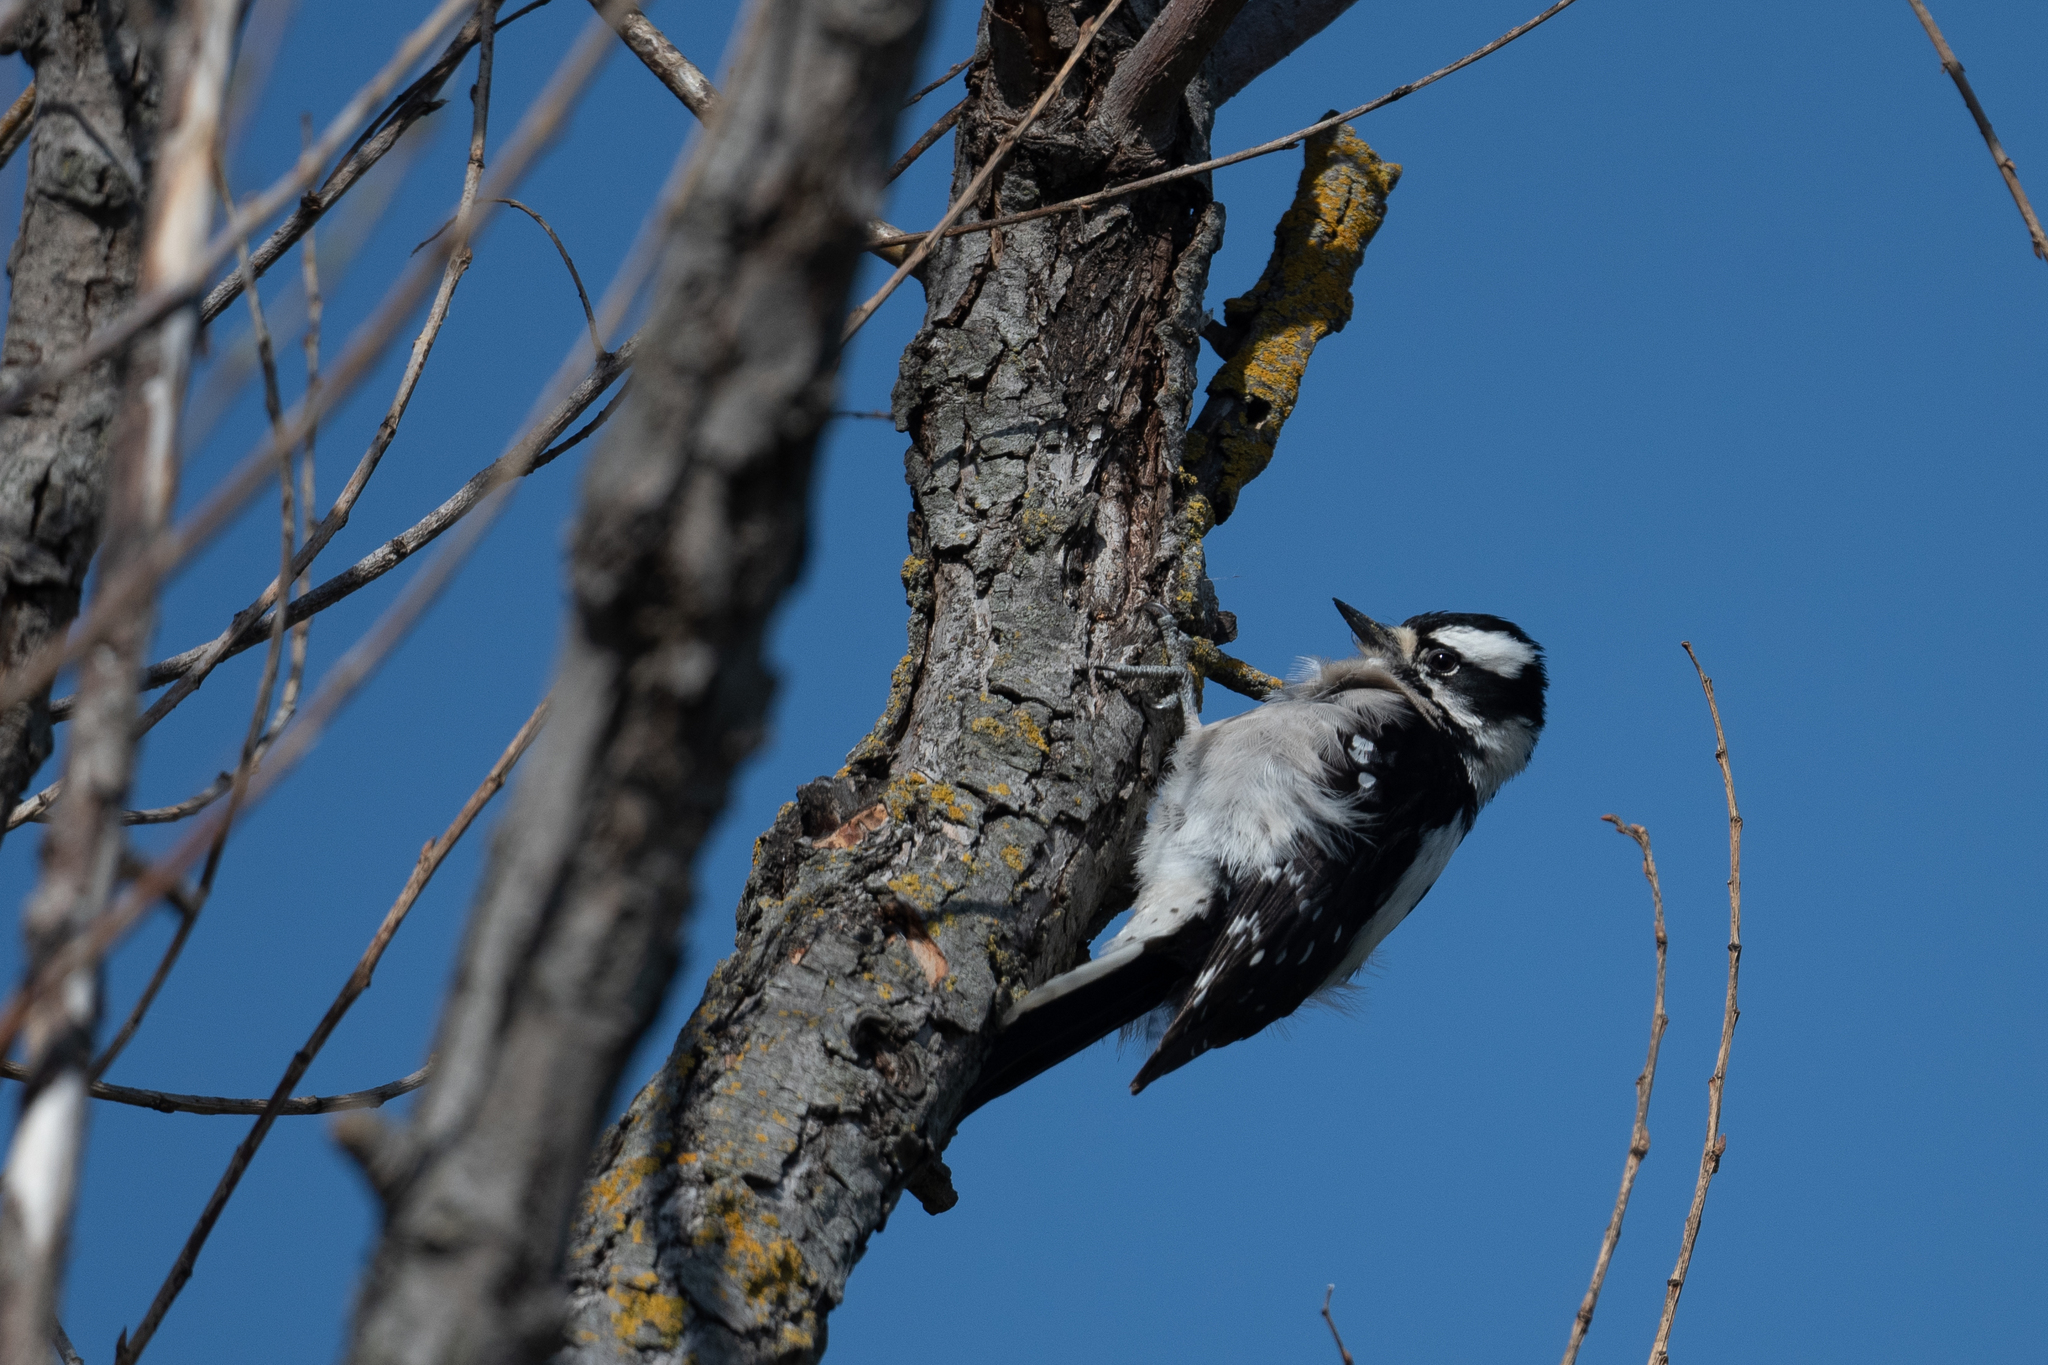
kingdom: Animalia
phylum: Chordata
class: Aves
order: Piciformes
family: Picidae
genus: Dryobates
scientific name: Dryobates pubescens
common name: Downy woodpecker
